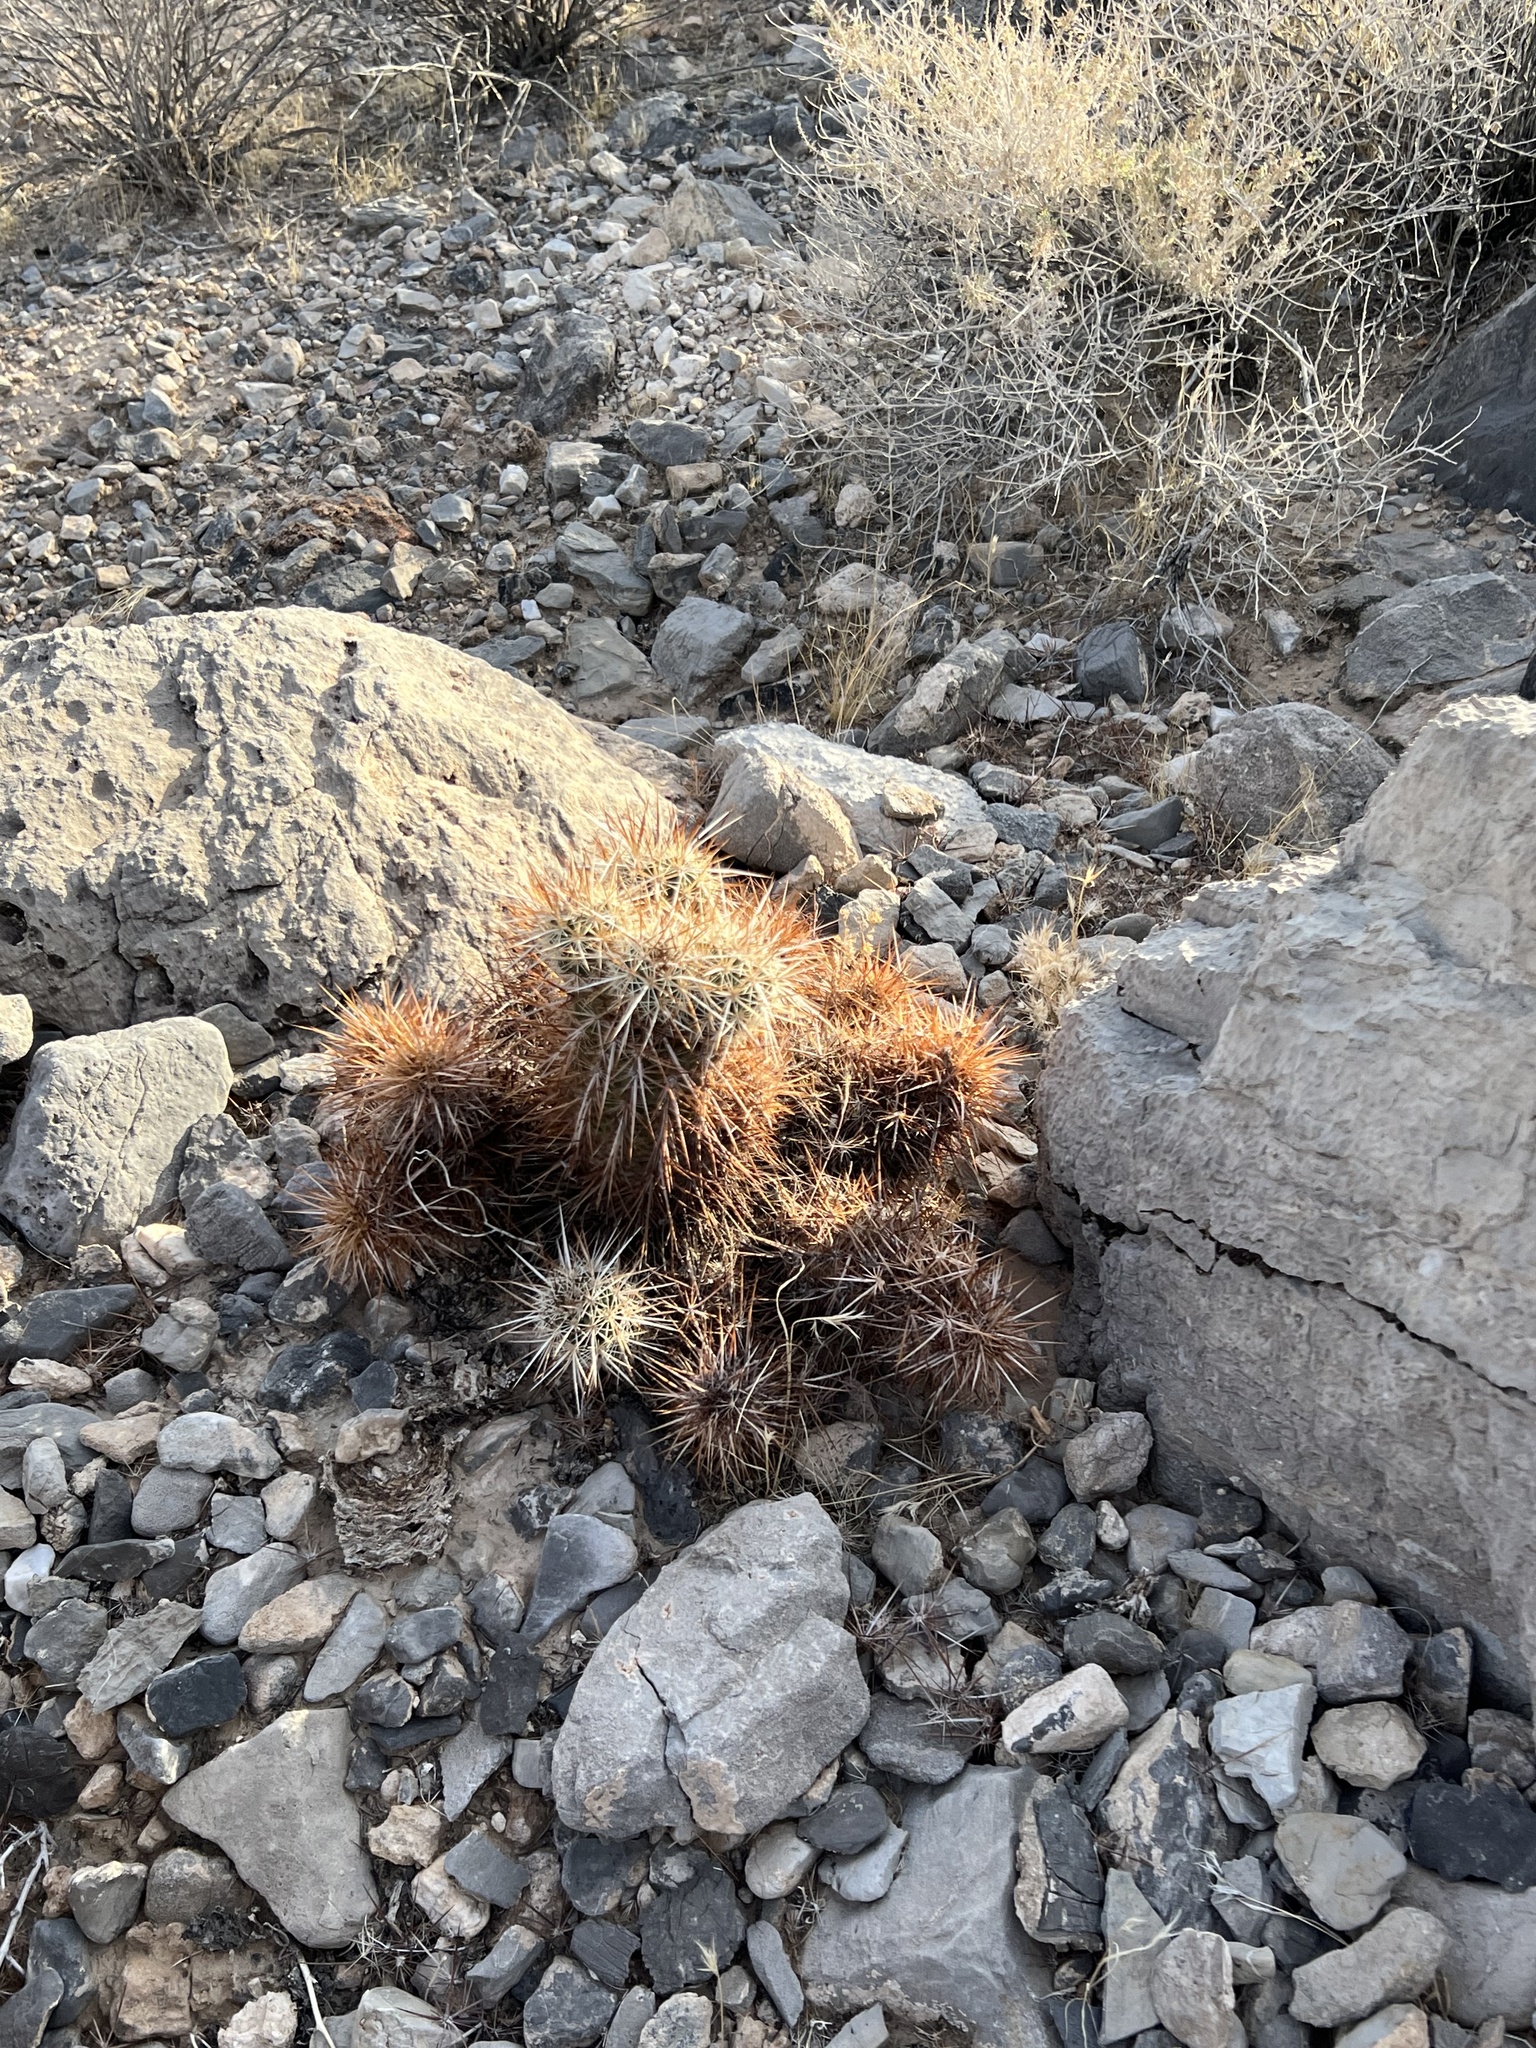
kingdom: Plantae
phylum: Tracheophyta
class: Magnoliopsida
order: Caryophyllales
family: Cactaceae
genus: Echinocereus
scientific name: Echinocereus engelmannii
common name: Engelmann's hedgehog cactus
